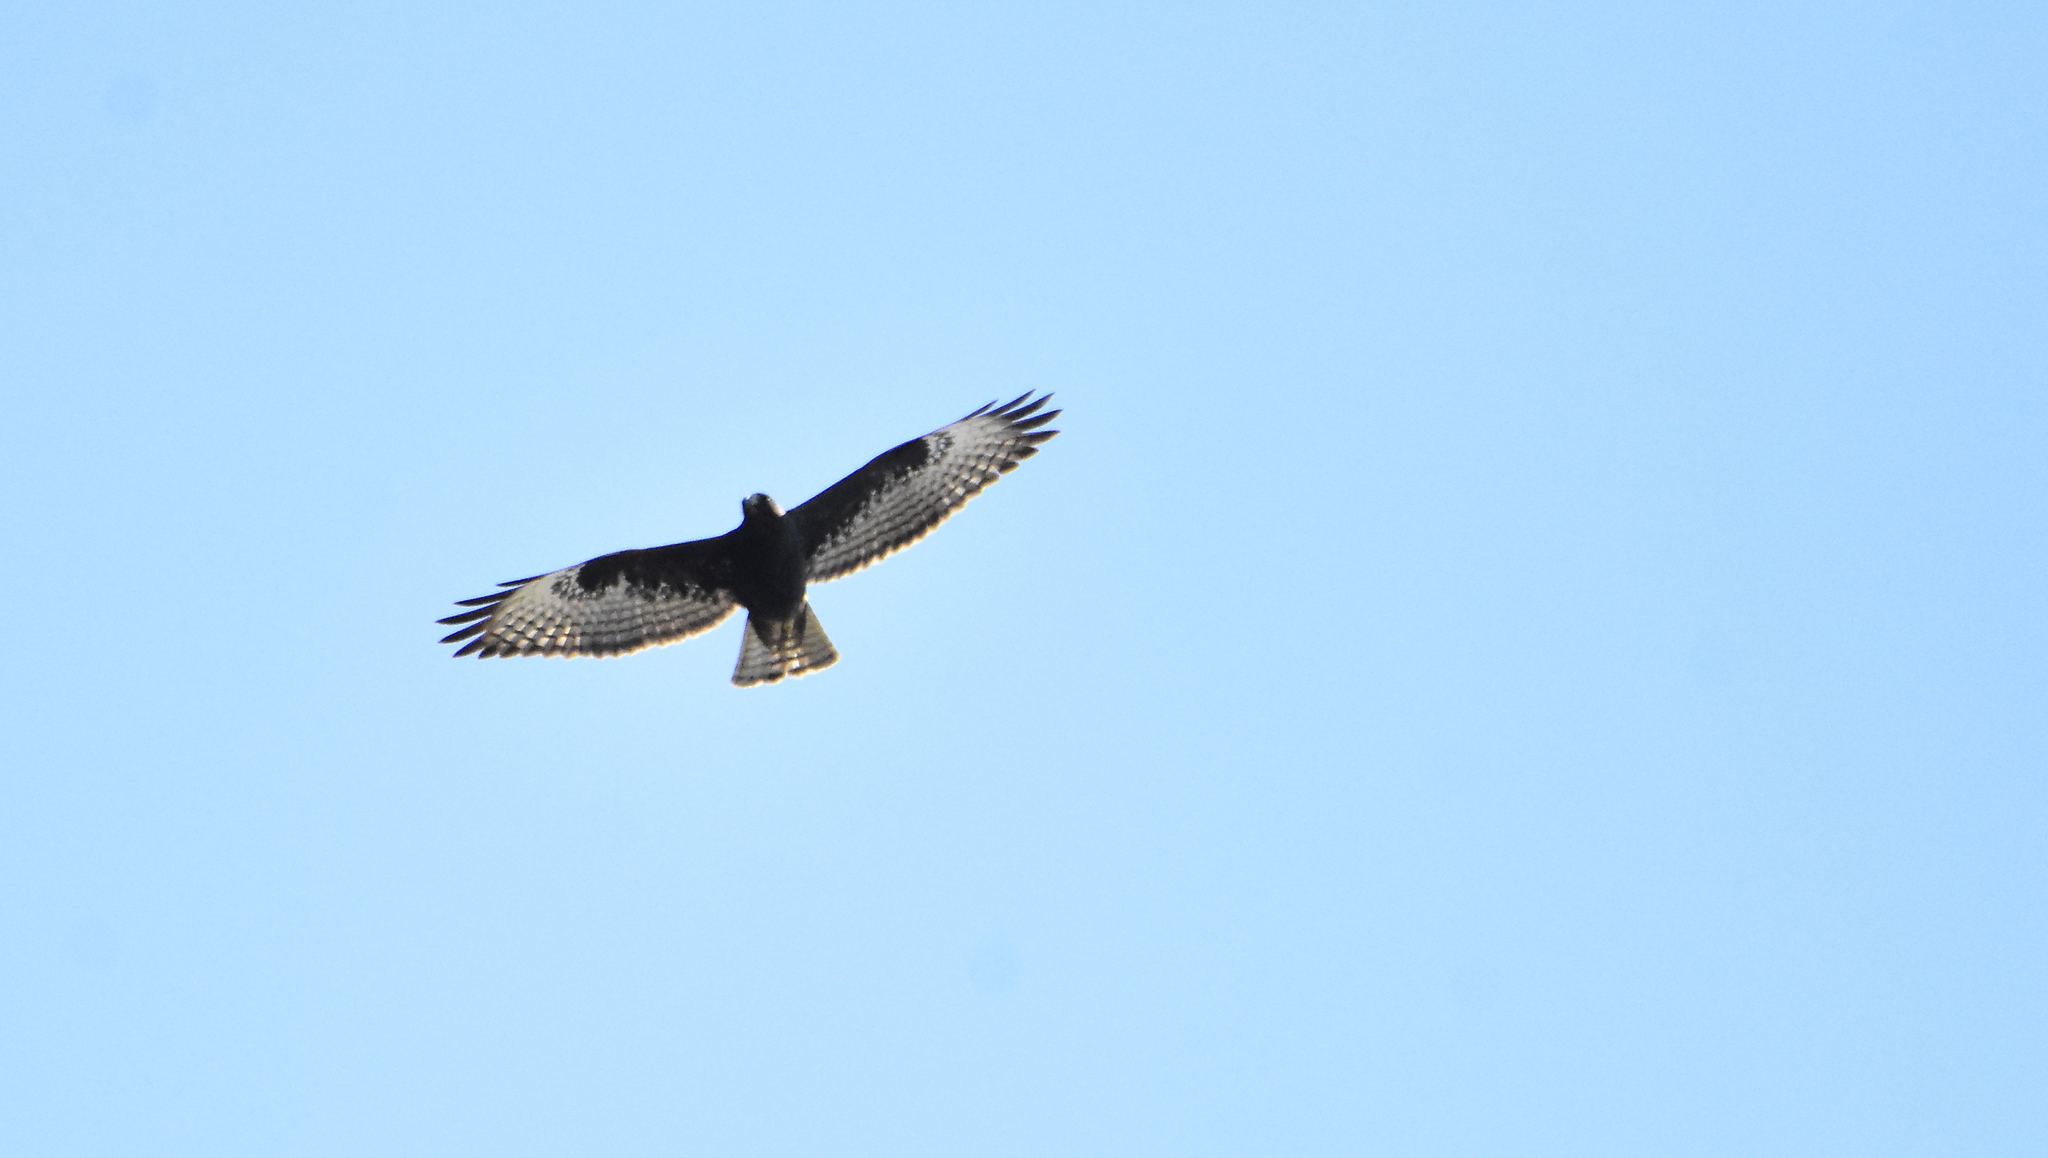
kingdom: Animalia
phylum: Chordata
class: Aves
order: Accipitriformes
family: Accipitridae
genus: Buteo
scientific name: Buteo brachyurus
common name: Short-tailed hawk
